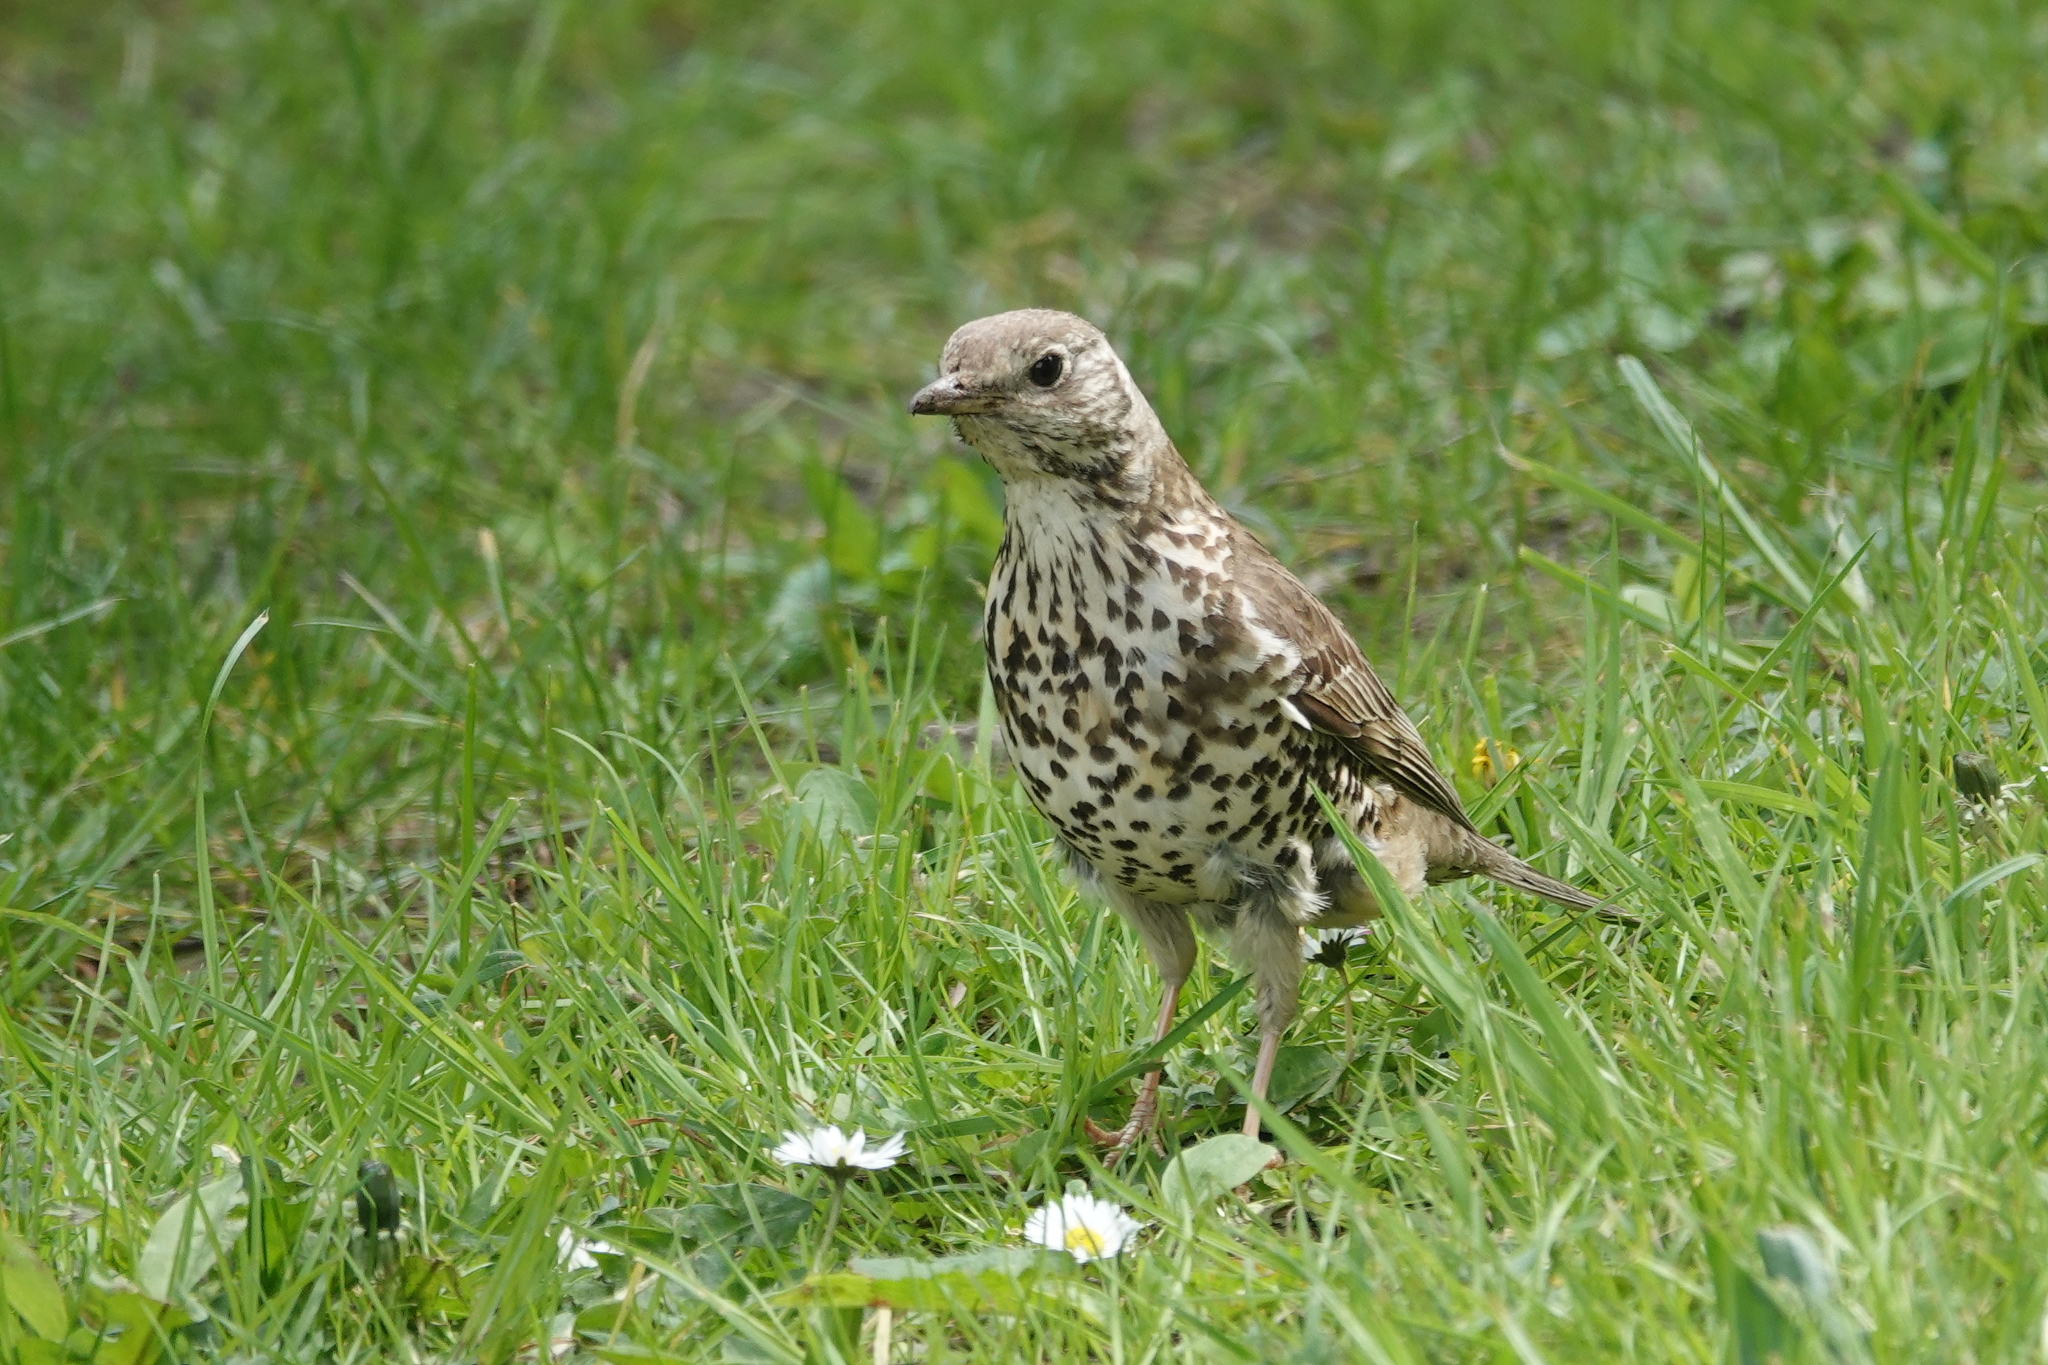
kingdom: Animalia
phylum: Chordata
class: Aves
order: Passeriformes
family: Turdidae
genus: Turdus
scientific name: Turdus viscivorus
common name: Mistle thrush
